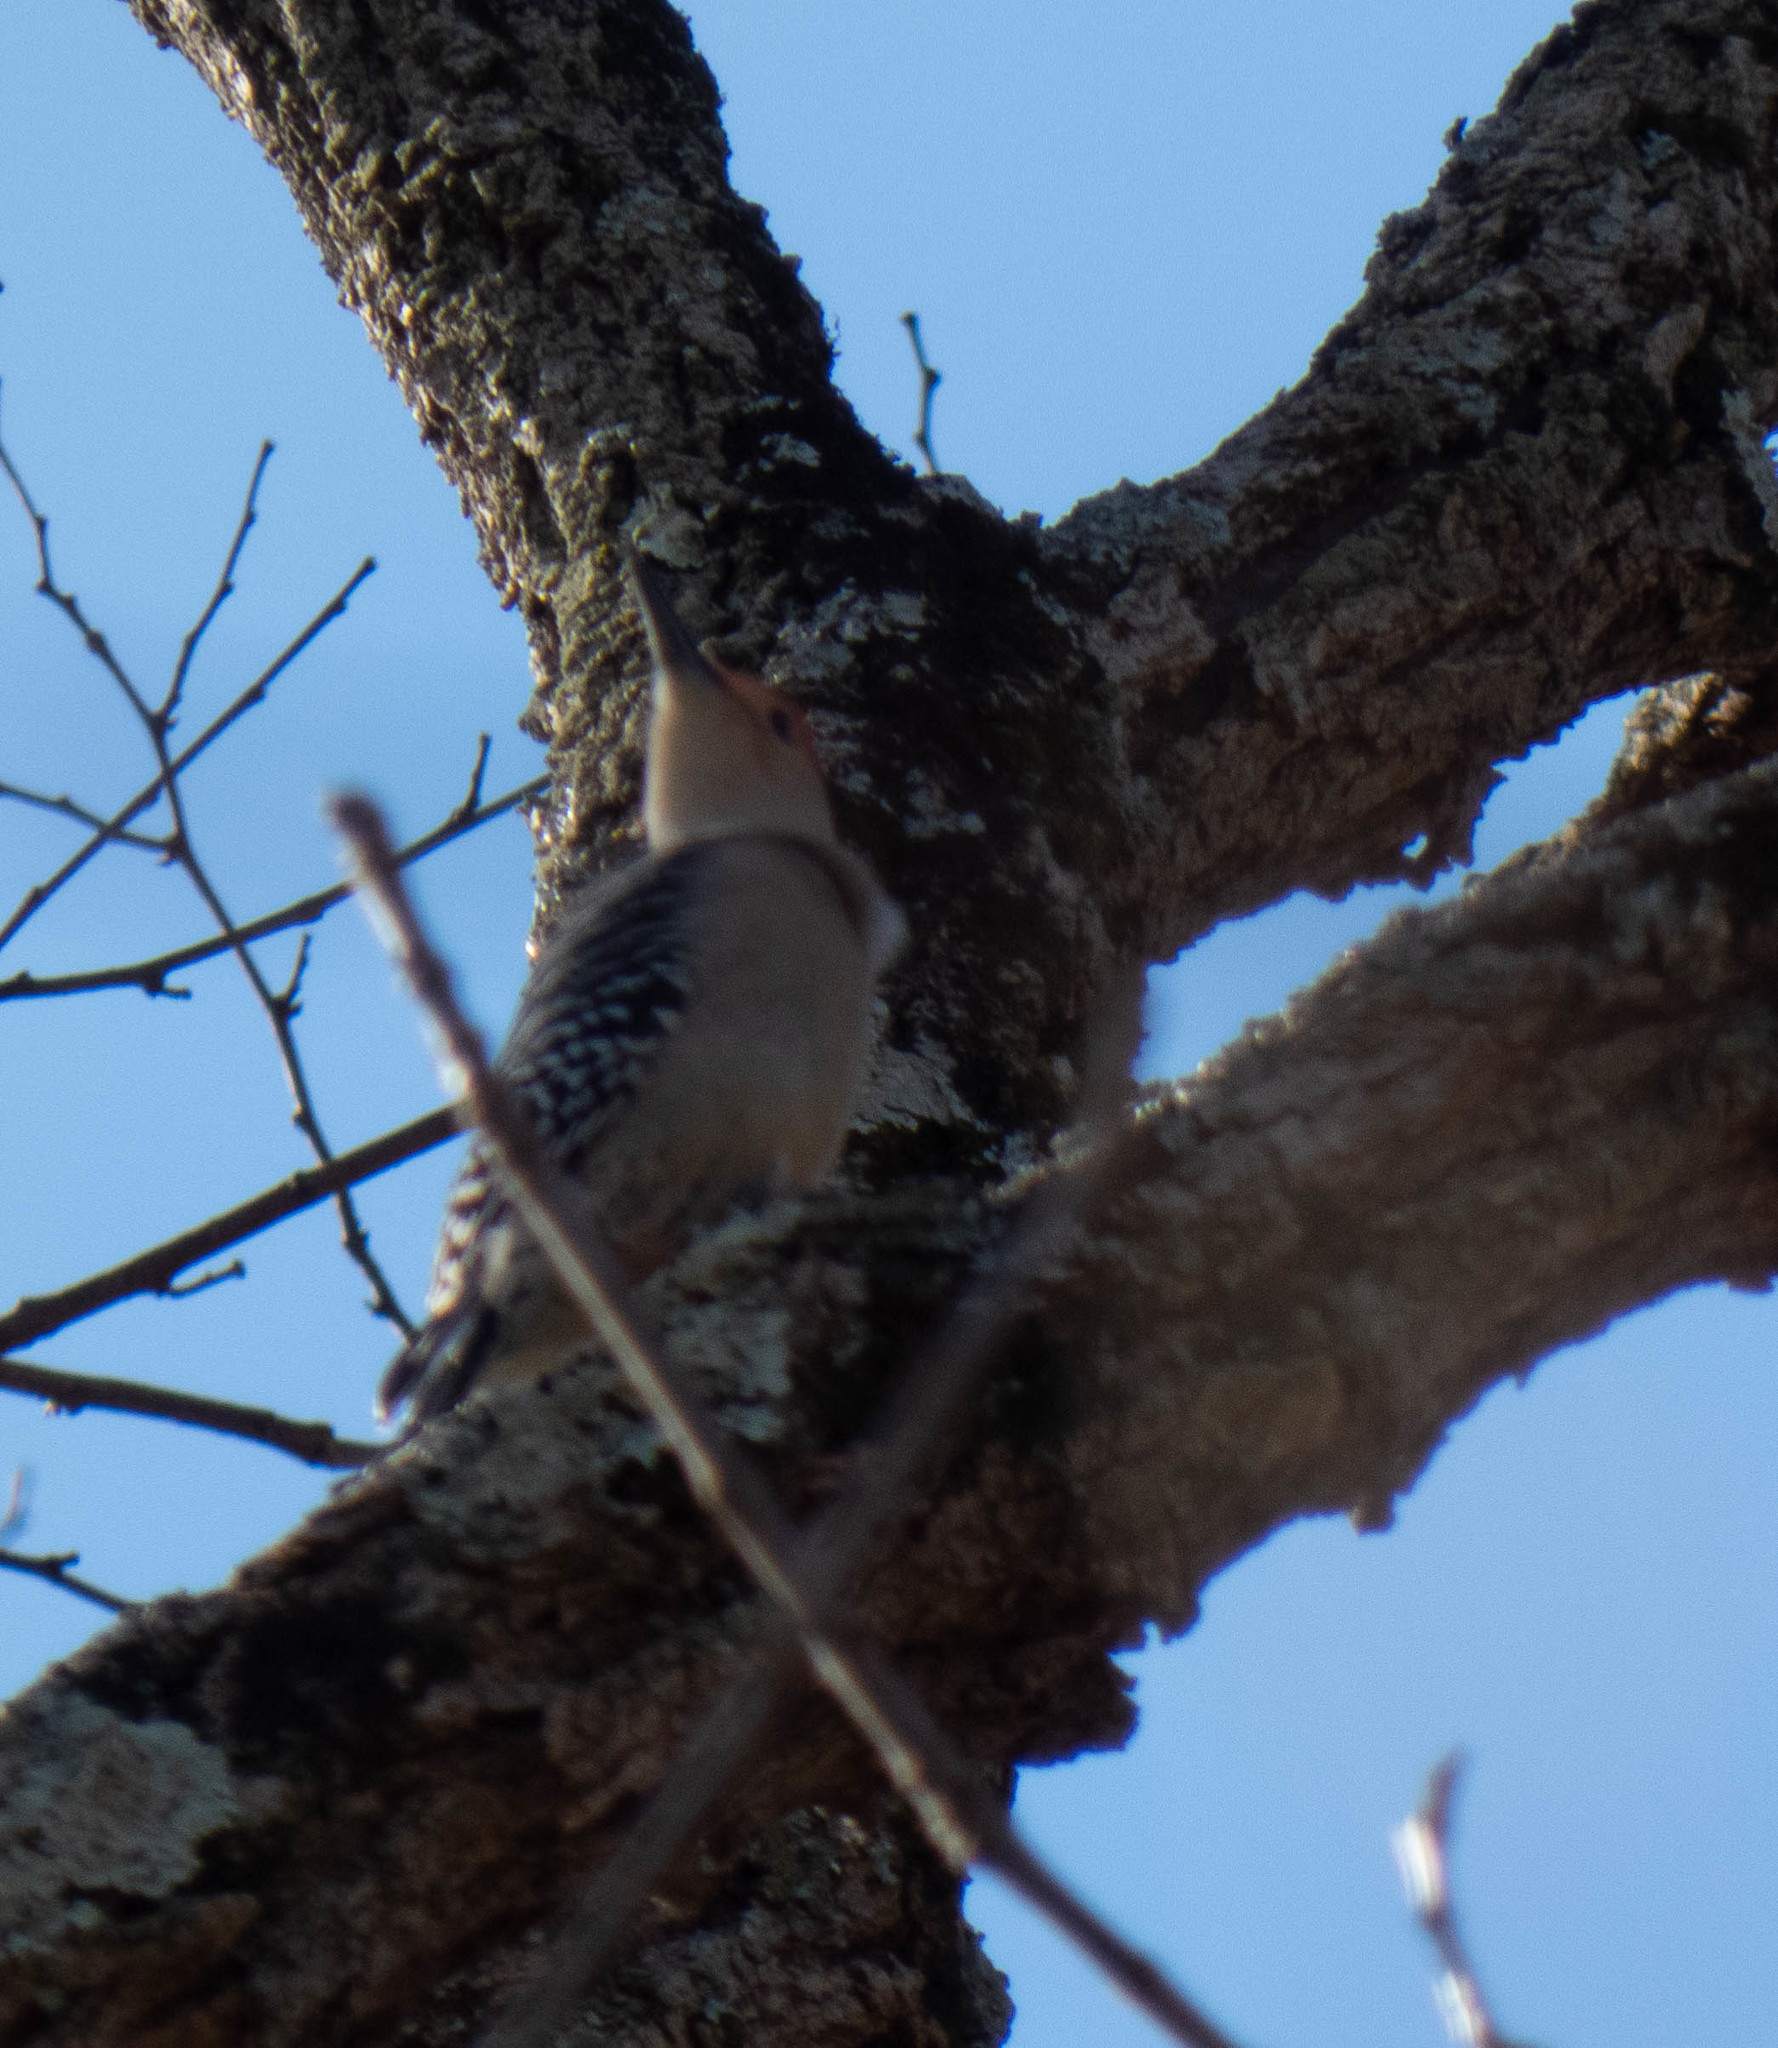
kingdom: Animalia
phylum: Chordata
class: Aves
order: Piciformes
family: Picidae
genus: Melanerpes
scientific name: Melanerpes carolinus
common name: Red-bellied woodpecker
